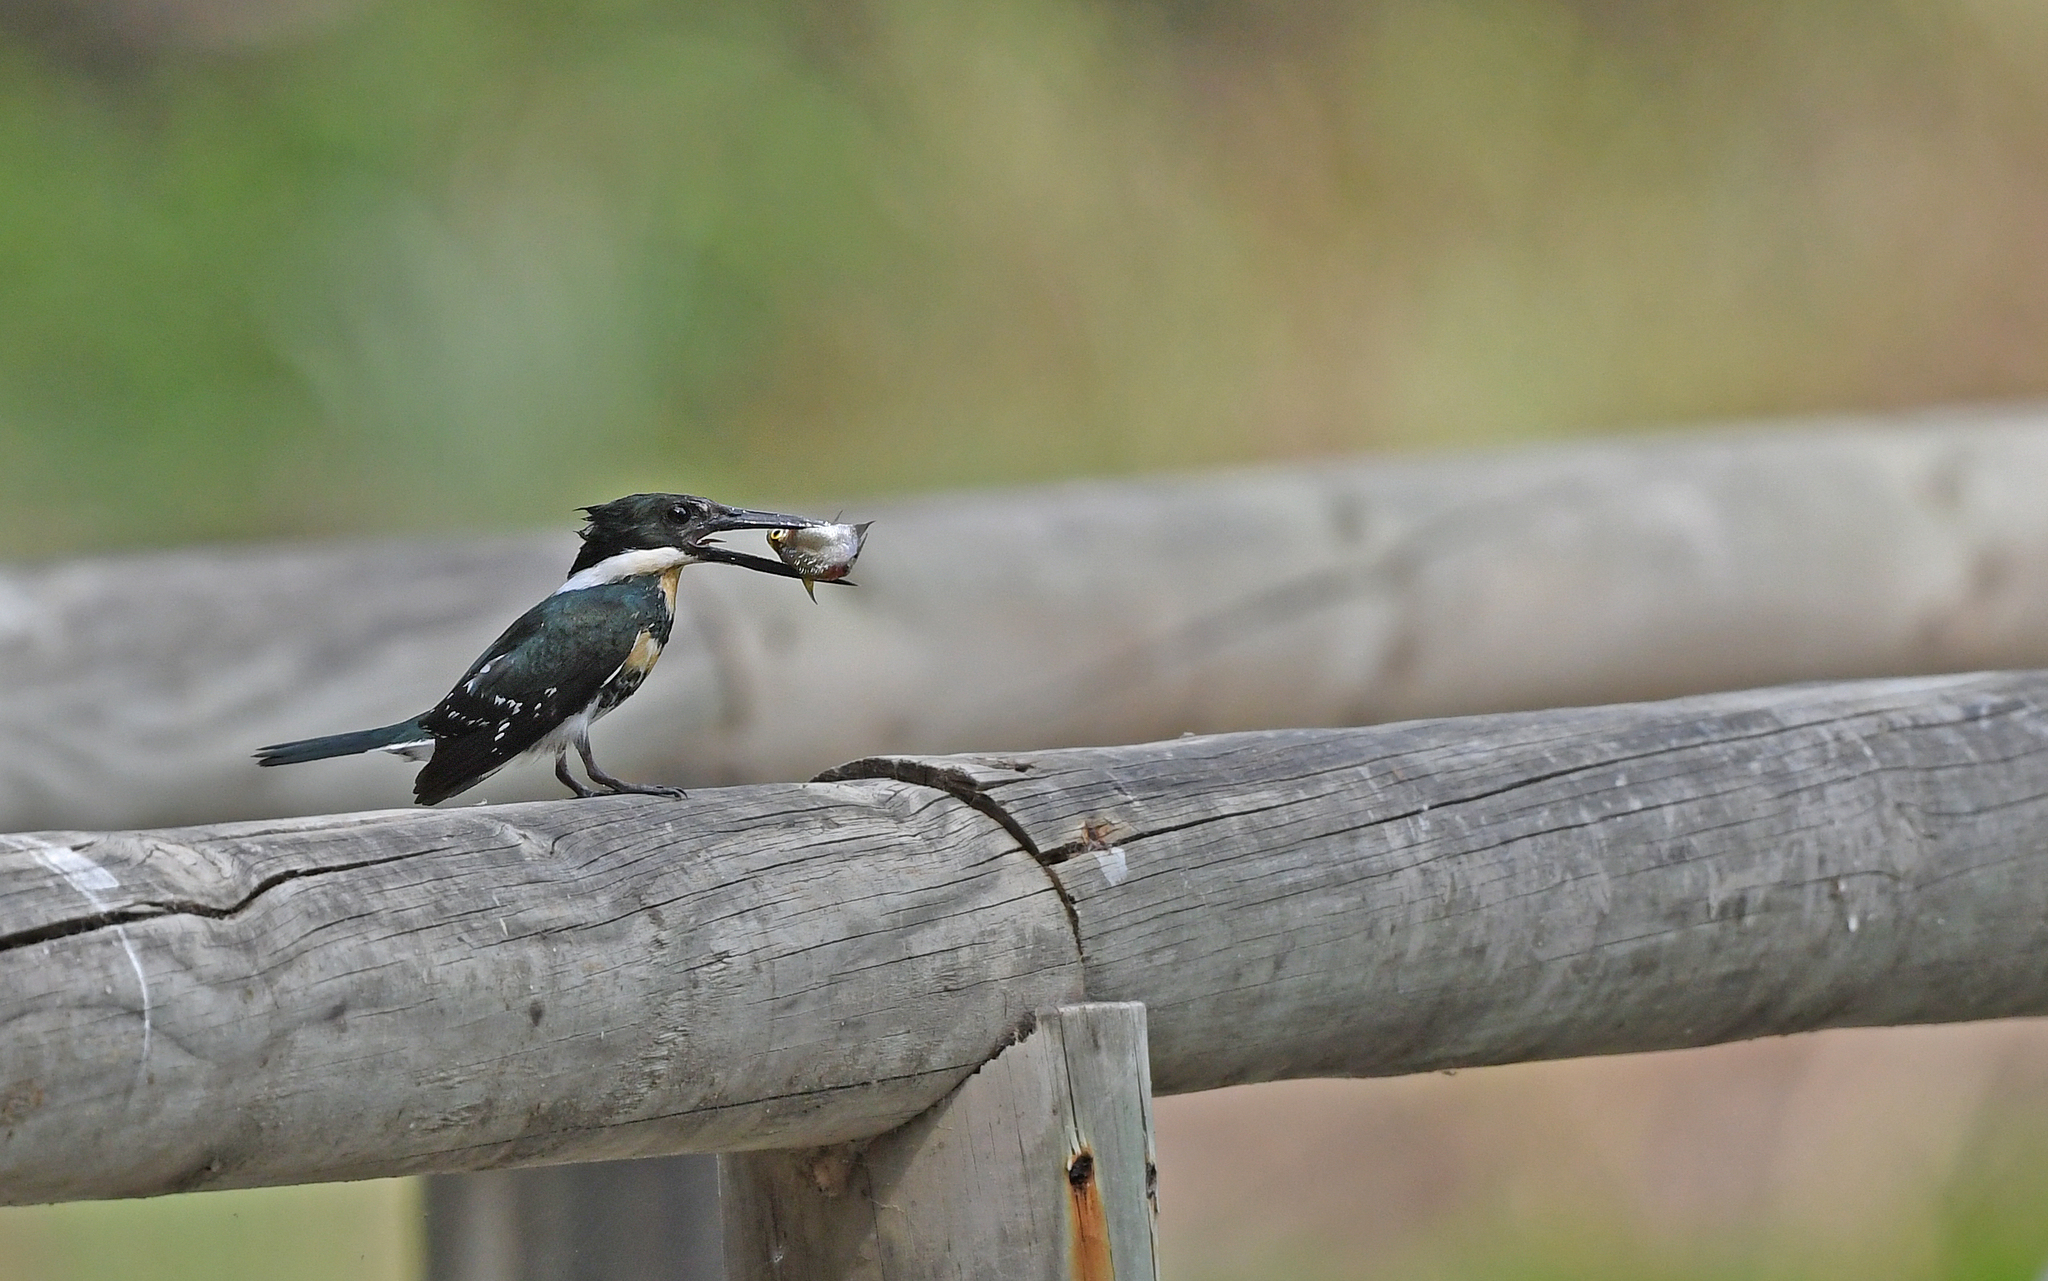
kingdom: Animalia
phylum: Chordata
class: Aves
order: Coraciiformes
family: Alcedinidae
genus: Chloroceryle
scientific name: Chloroceryle americana
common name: Green kingfisher
